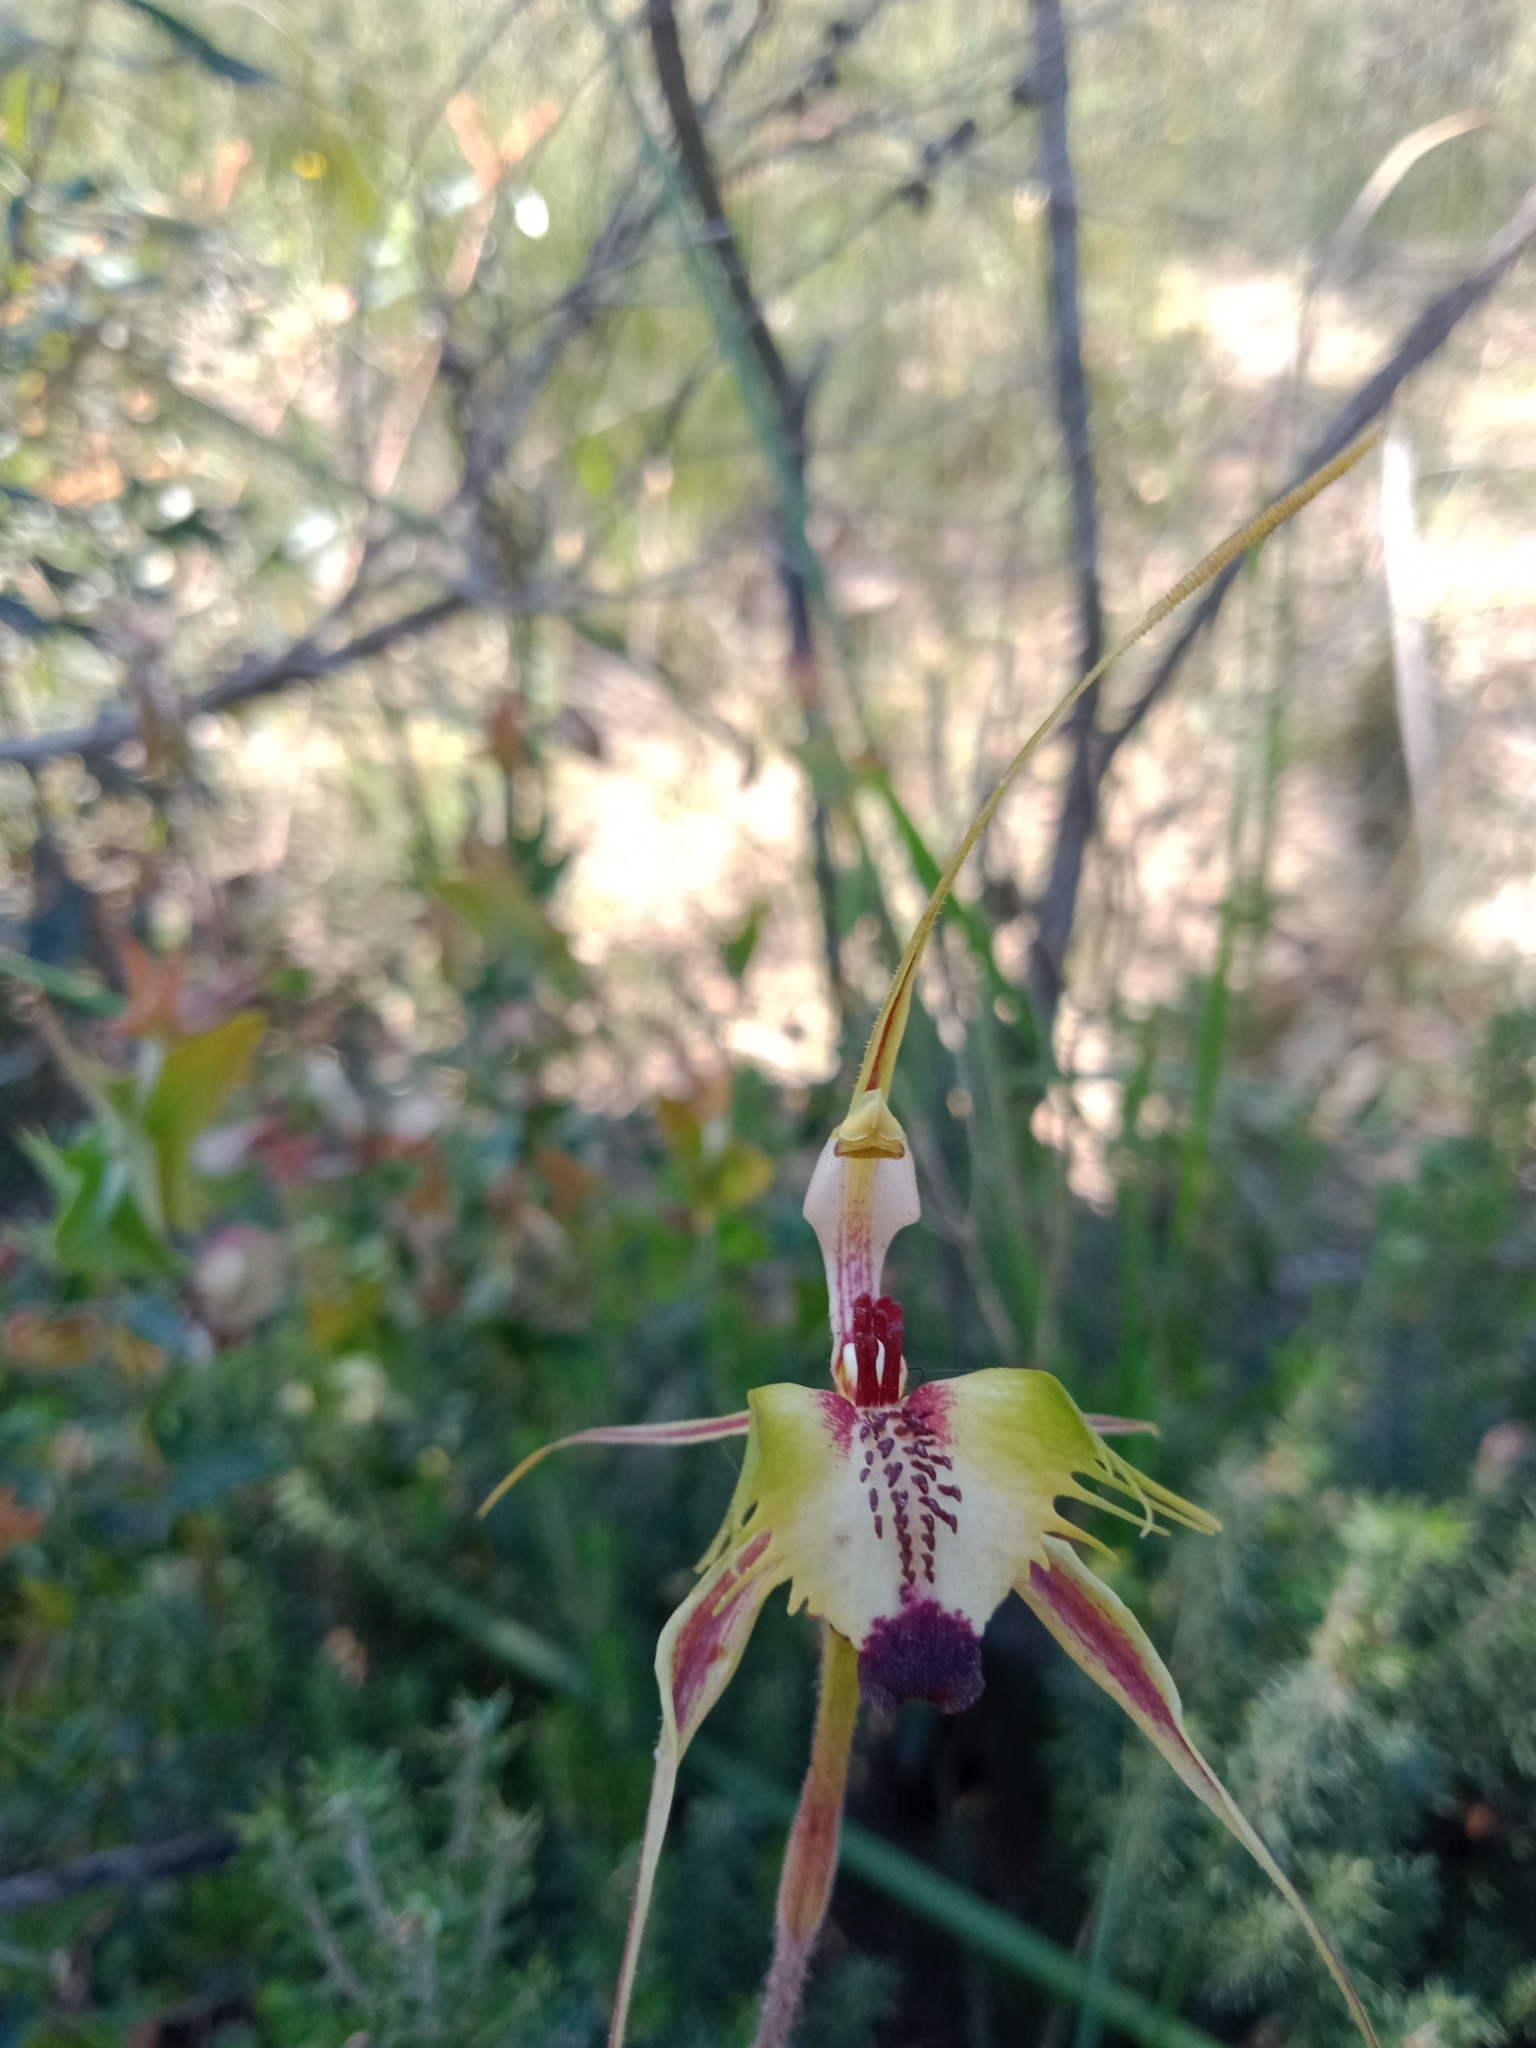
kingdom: Plantae
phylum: Tracheophyta
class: Liliopsida
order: Asparagales
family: Orchidaceae
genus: Caladenia
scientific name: Caladenia tentaculata
